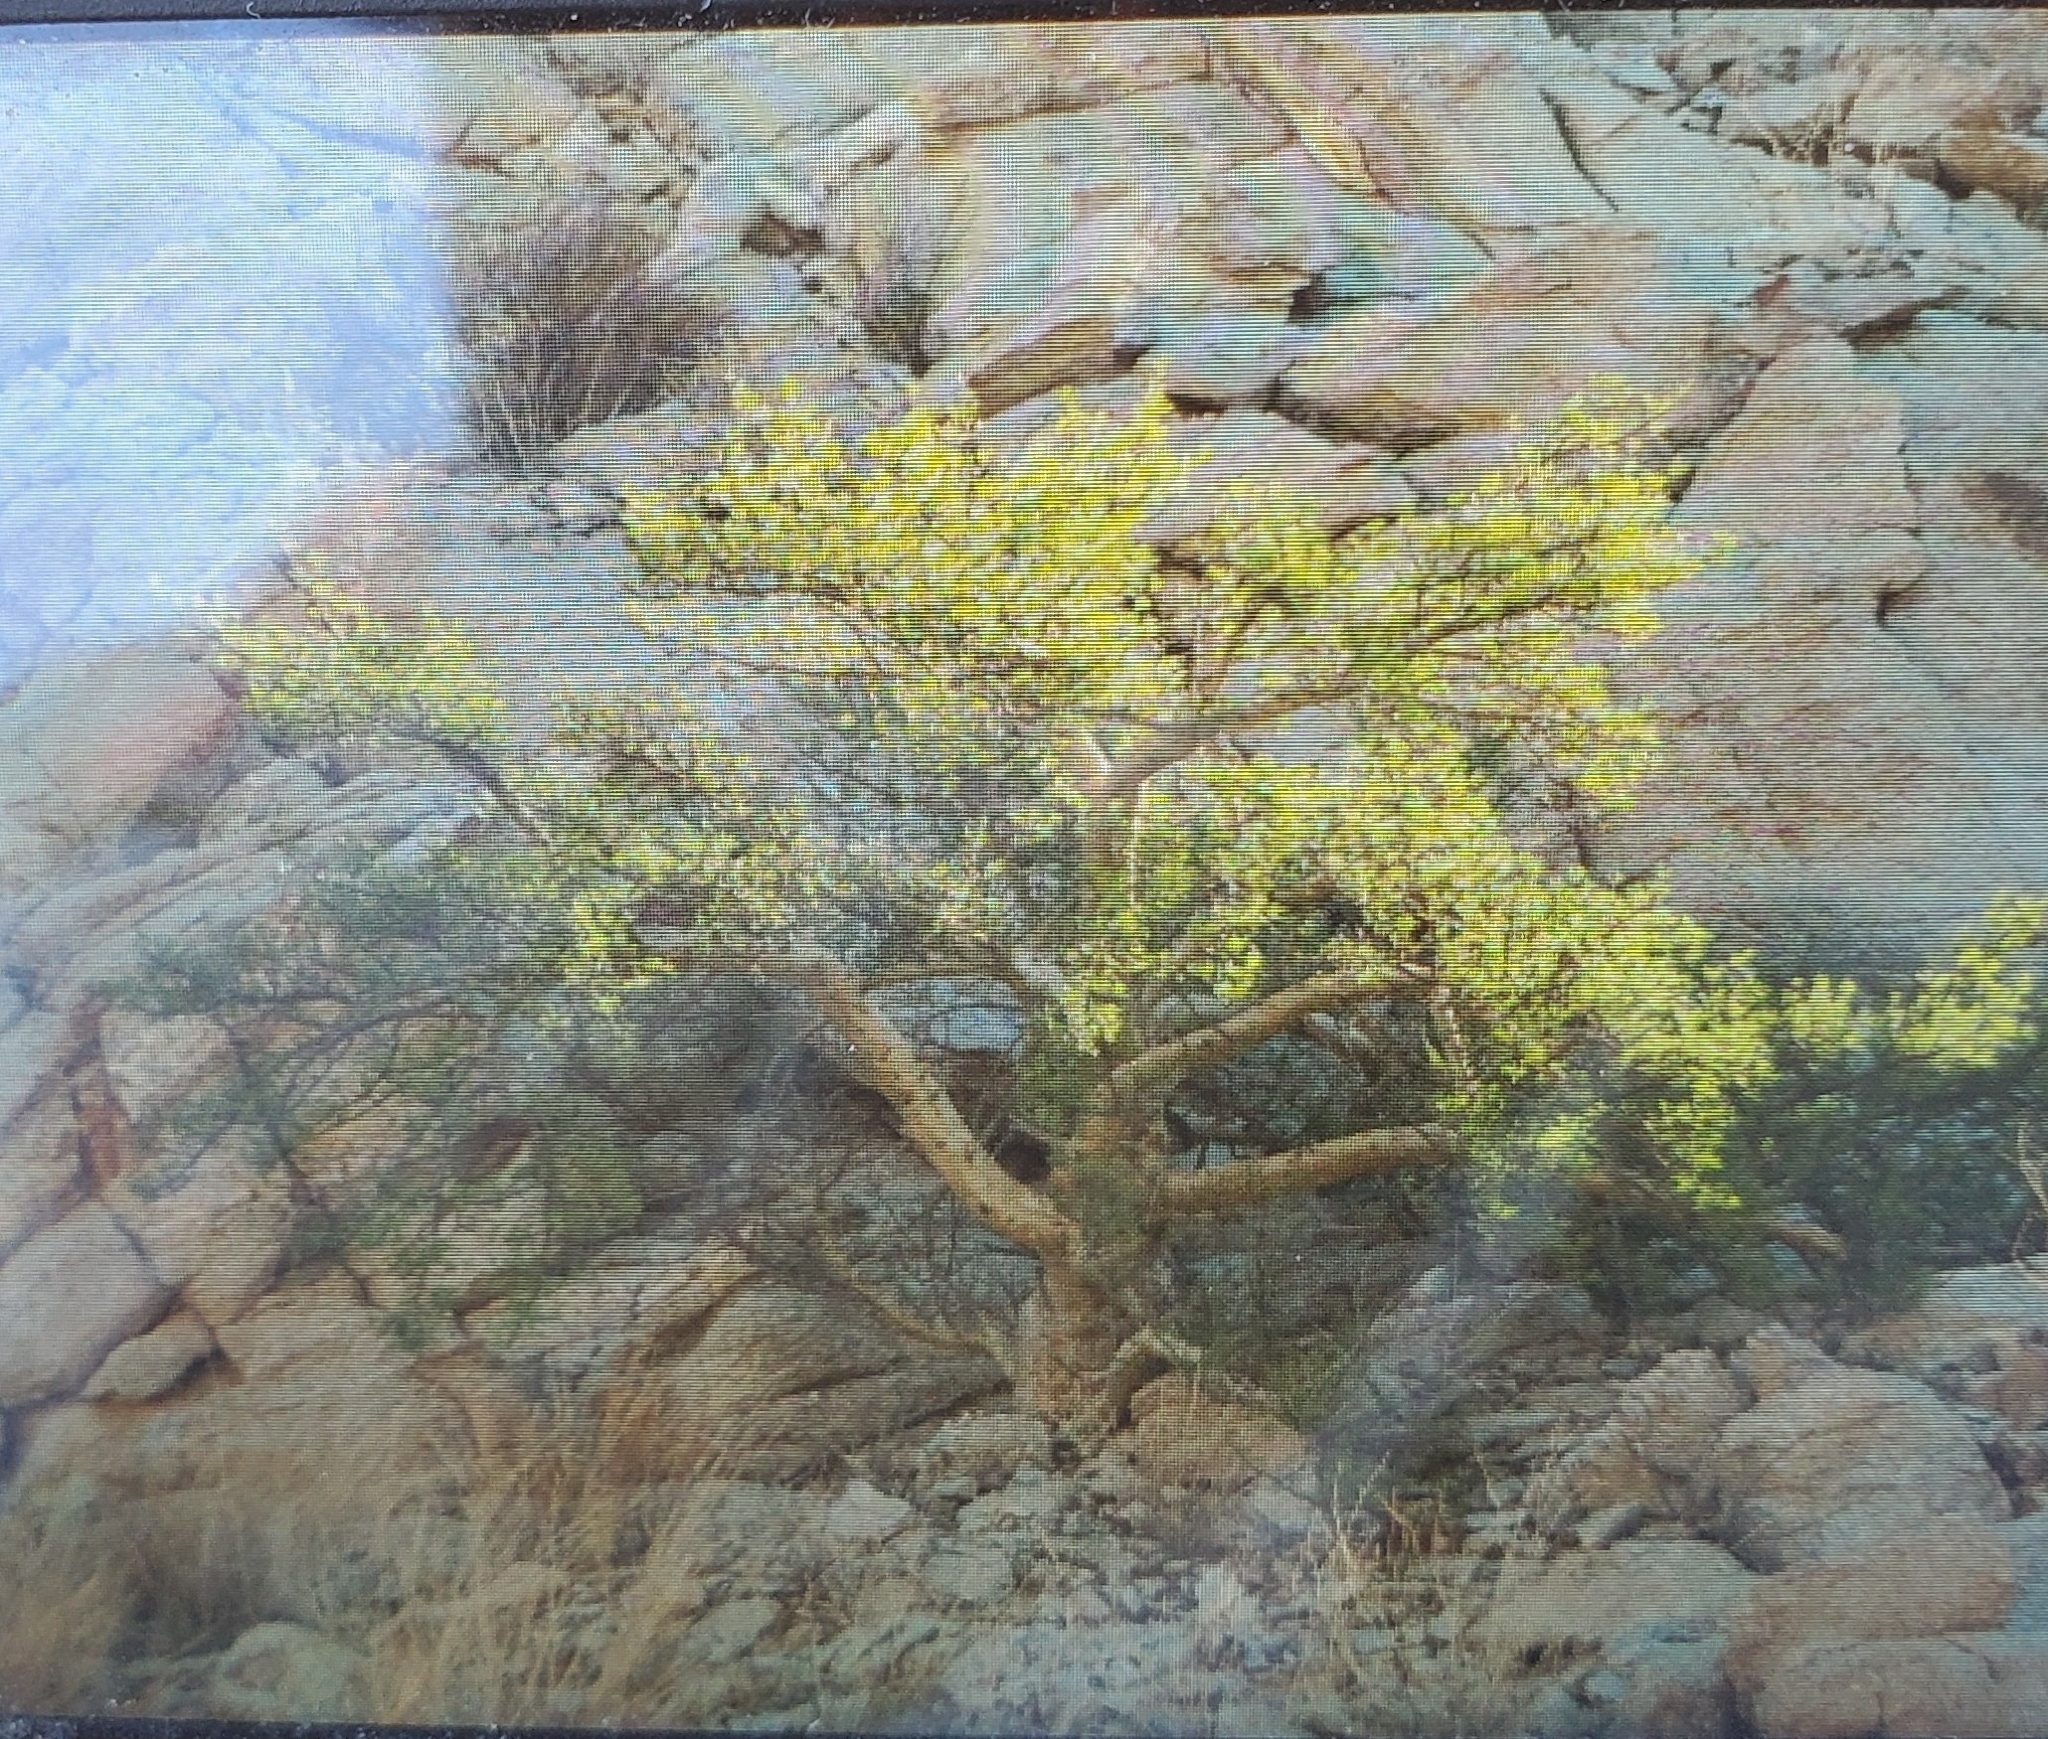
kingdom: Plantae
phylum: Tracheophyta
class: Magnoliopsida
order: Sapindales
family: Burseraceae
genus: Bursera
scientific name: Bursera microphylla
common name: Elephant tree
